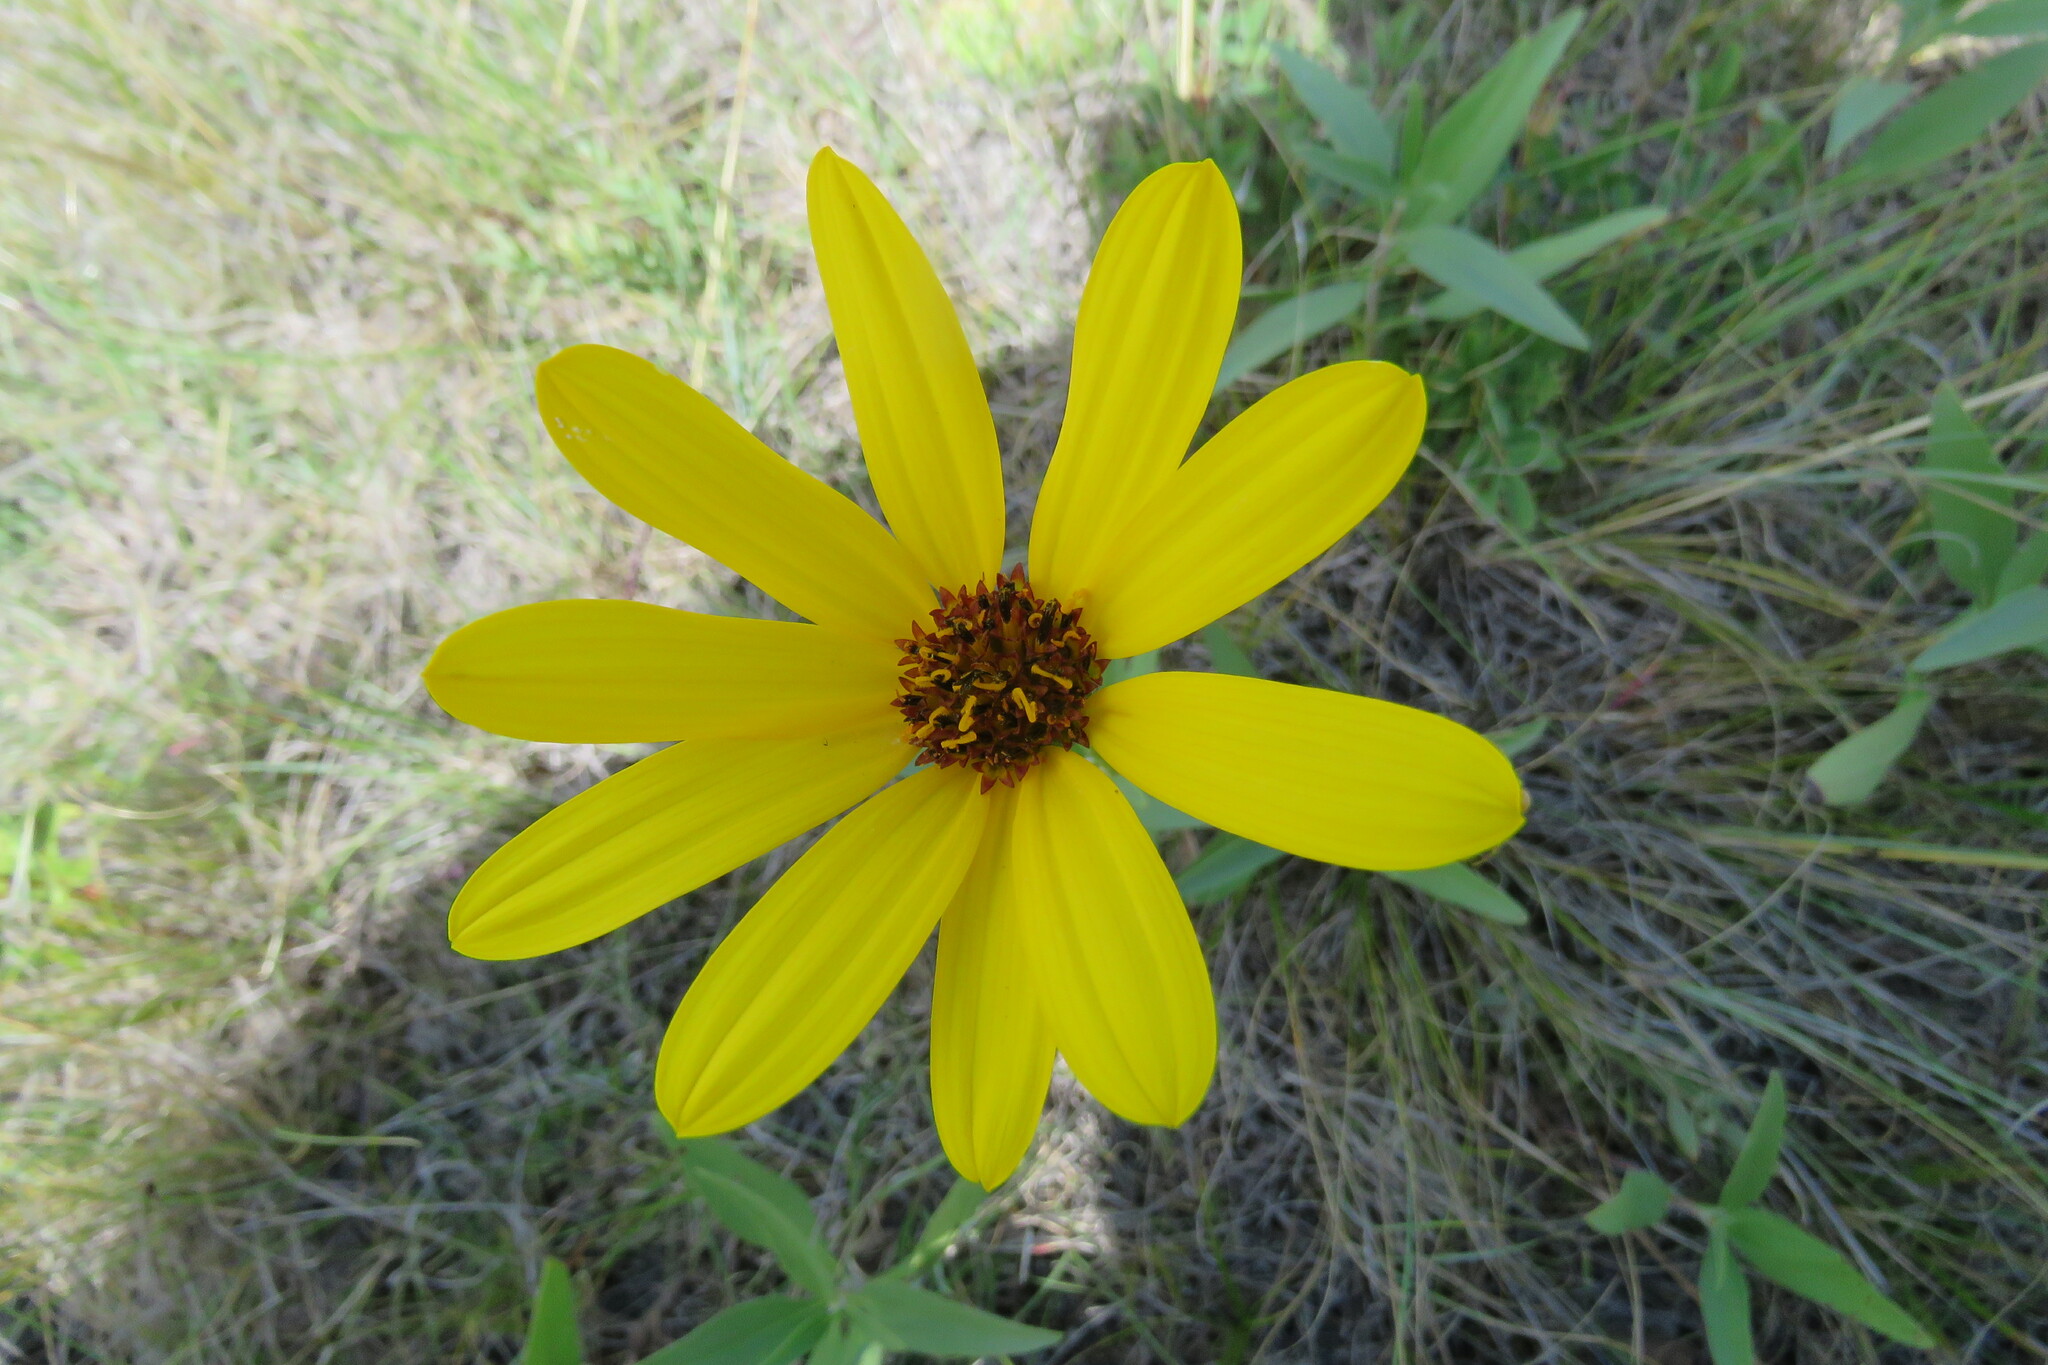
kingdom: Plantae
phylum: Tracheophyta
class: Magnoliopsida
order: Asterales
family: Asteraceae
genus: Helianthus
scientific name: Helianthus pauciflorus
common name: Stiff sunflower
